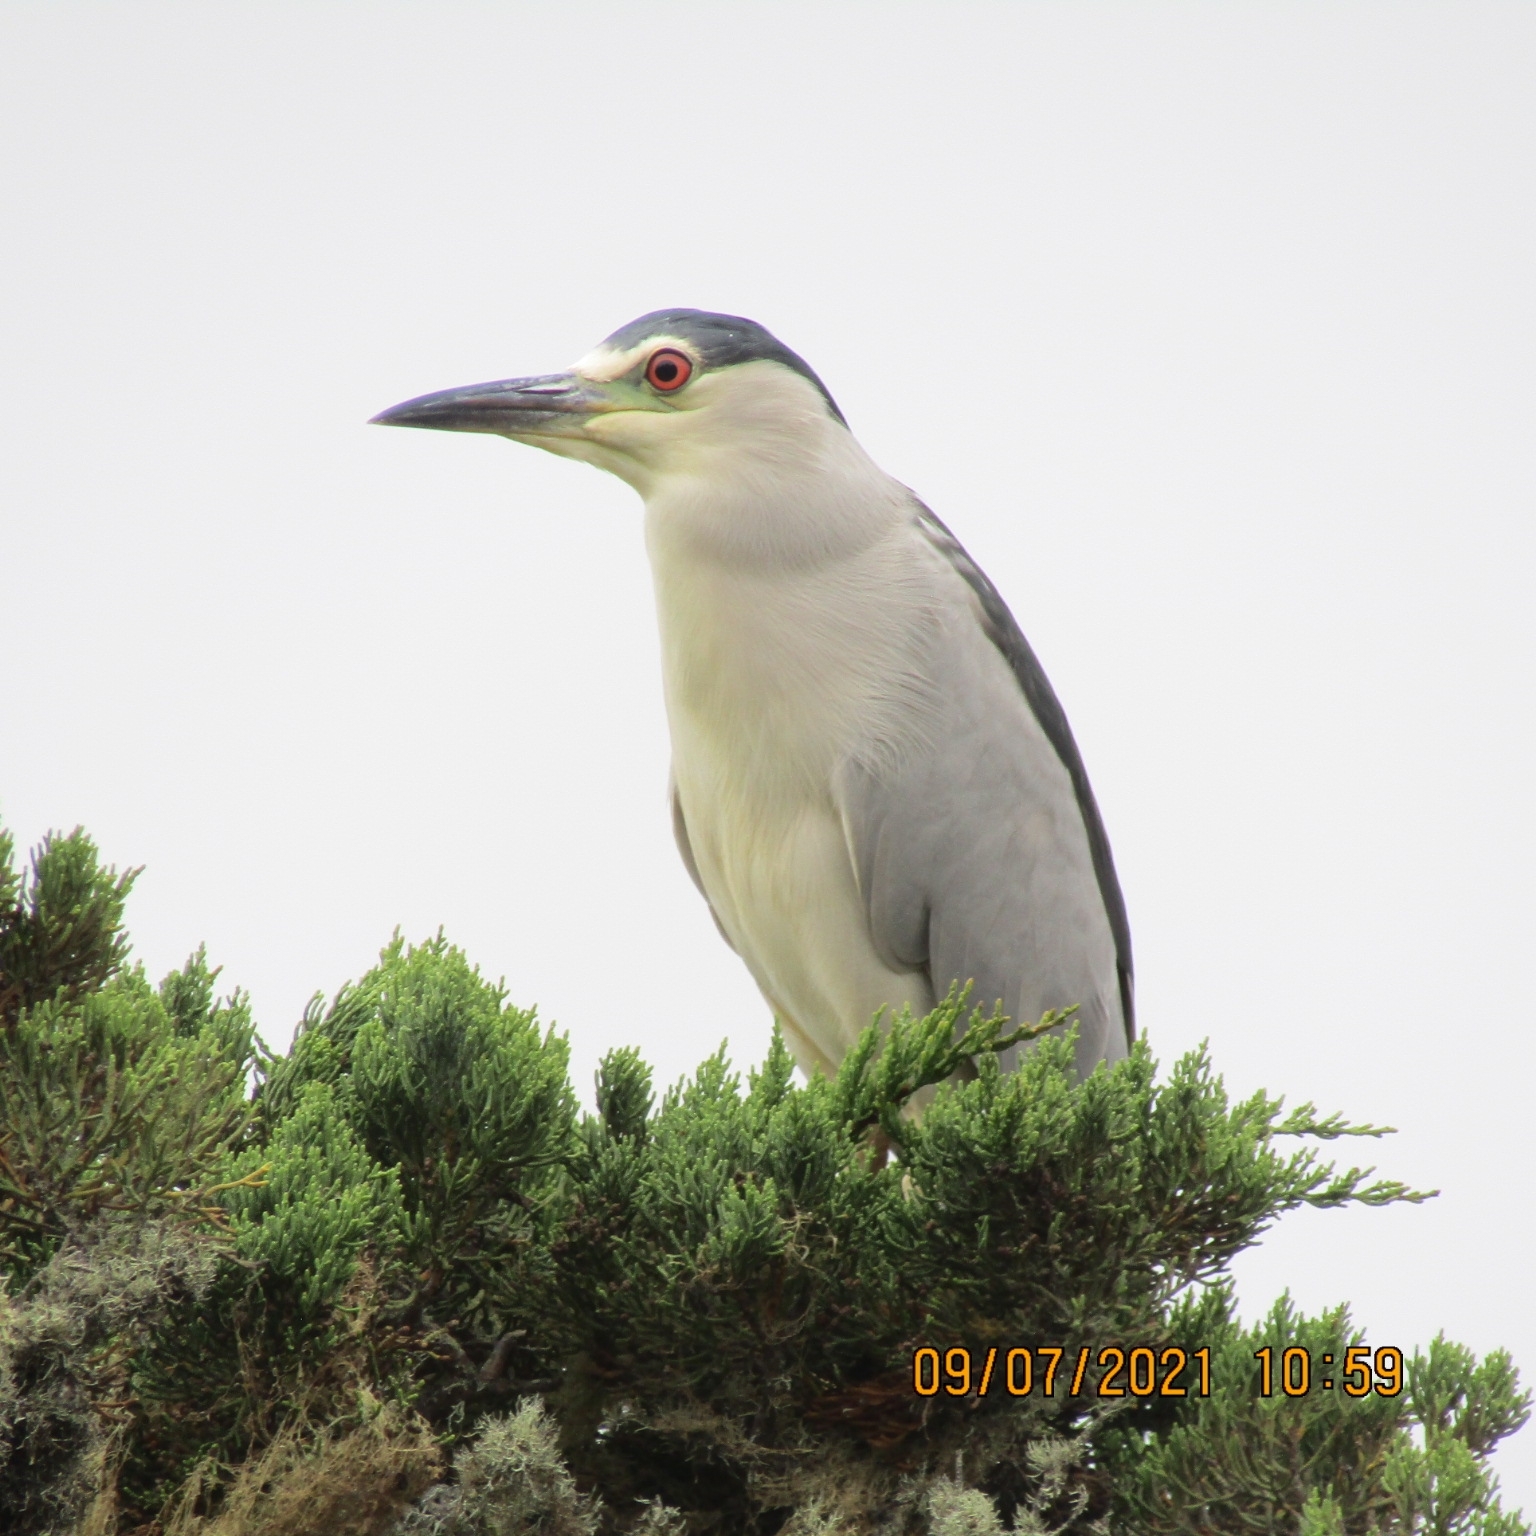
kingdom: Animalia
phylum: Chordata
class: Aves
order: Pelecaniformes
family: Ardeidae
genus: Nycticorax
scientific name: Nycticorax nycticorax
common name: Black-crowned night heron
